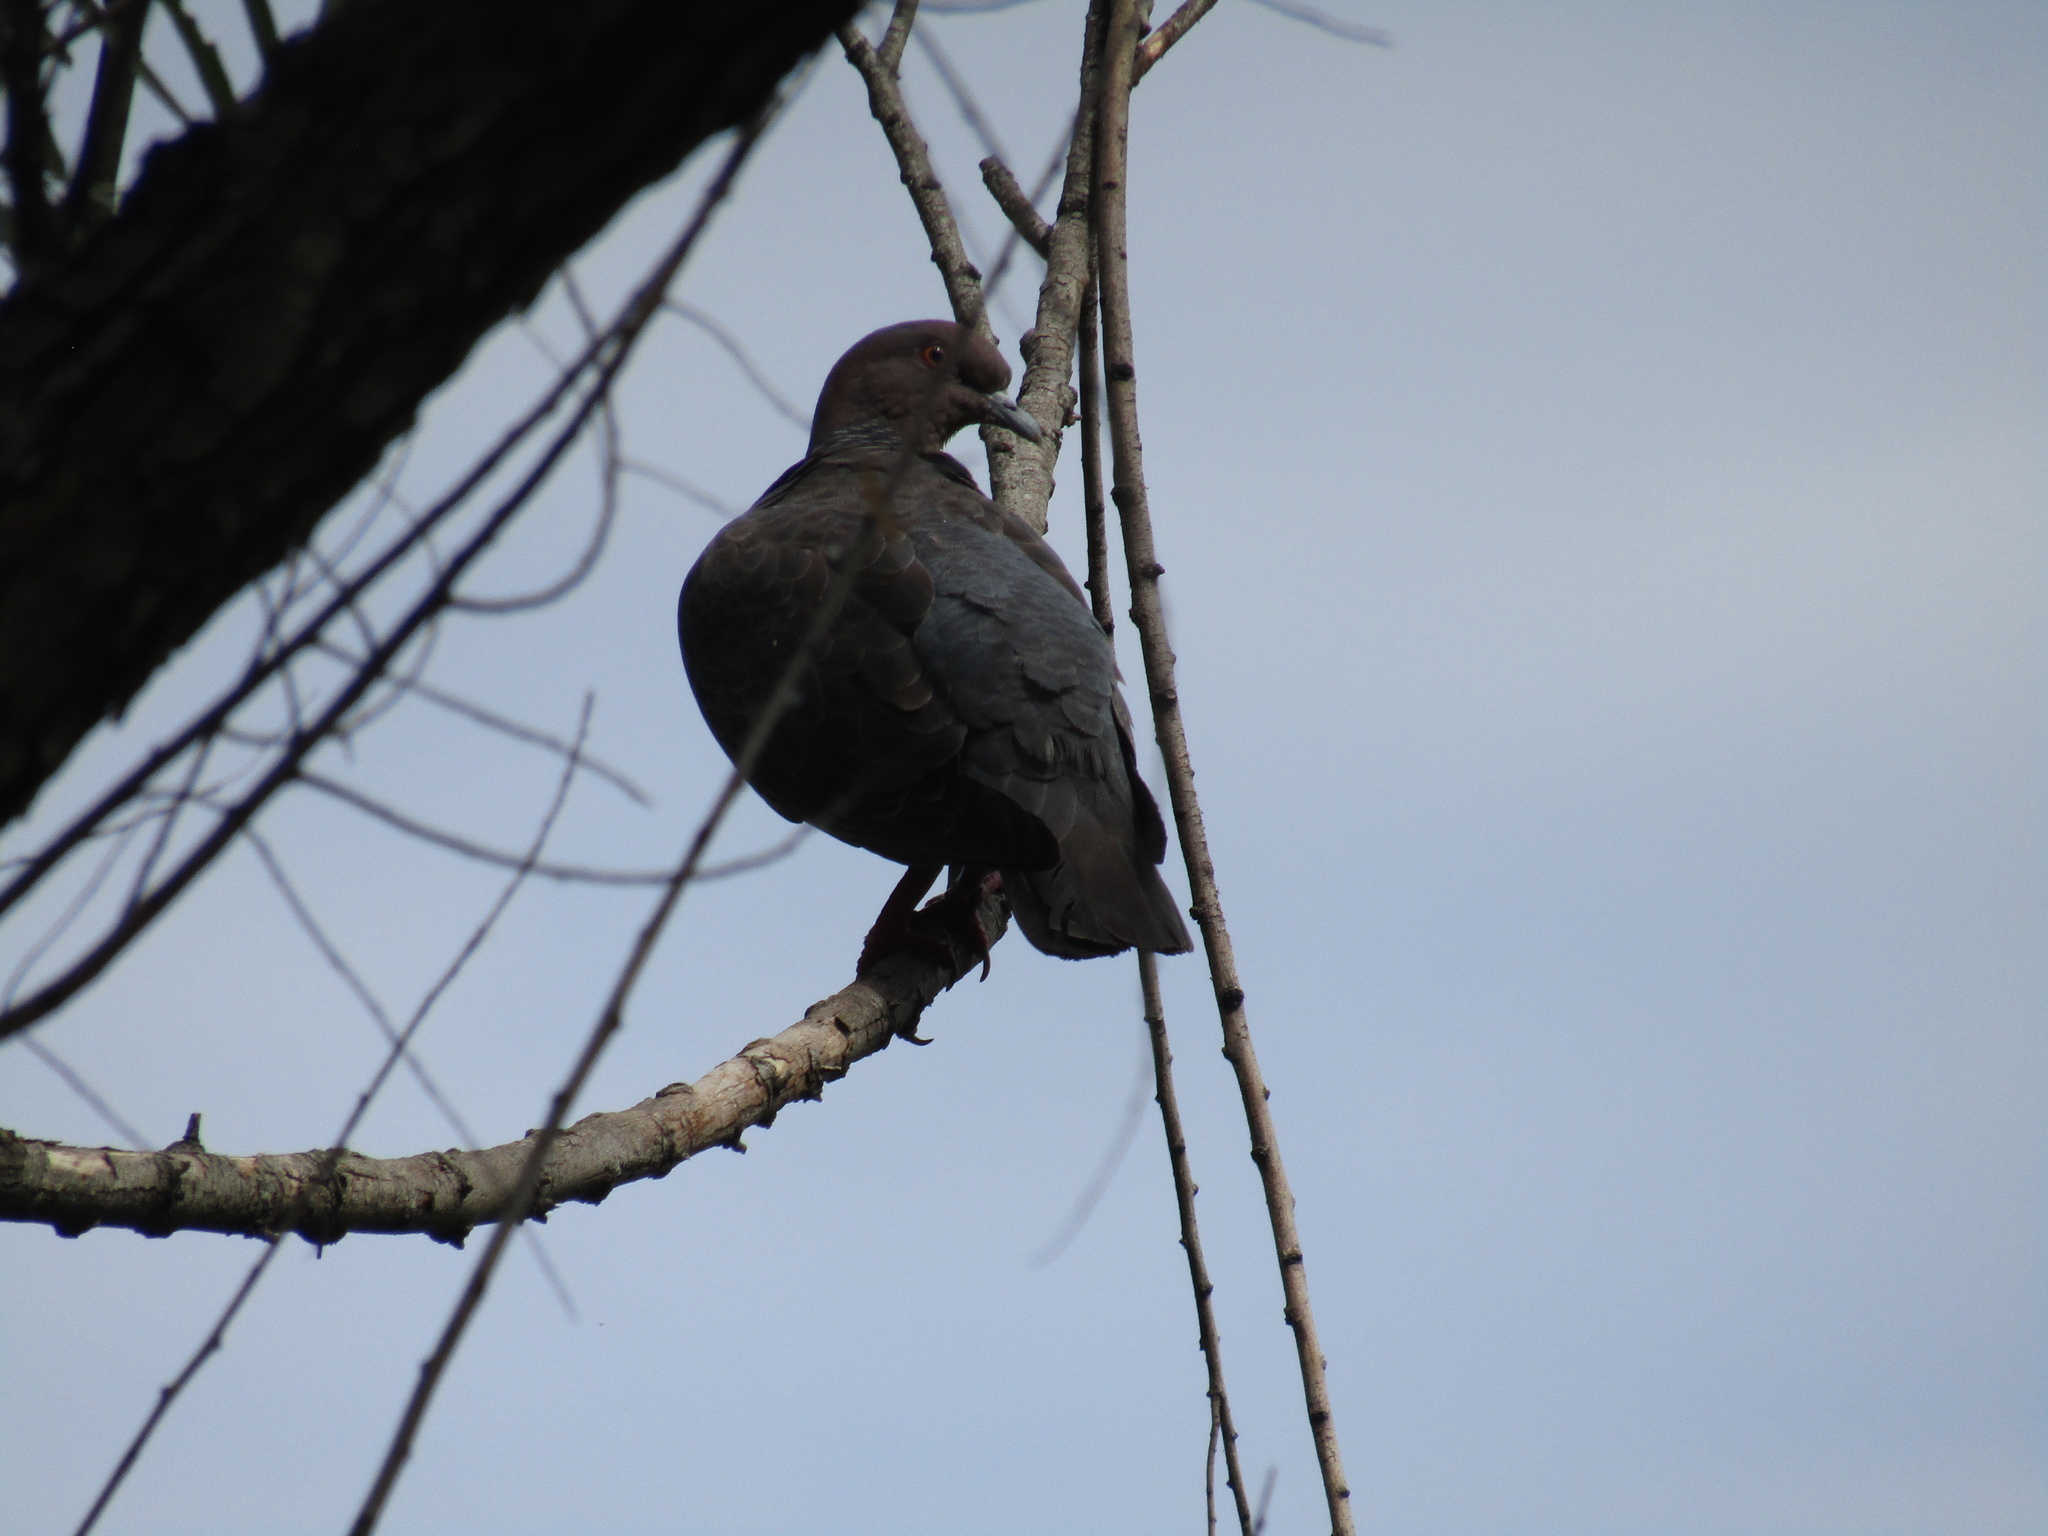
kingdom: Animalia
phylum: Chordata
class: Aves
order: Columbiformes
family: Columbidae
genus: Patagioenas
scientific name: Patagioenas picazuro
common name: Picazuro pigeon
